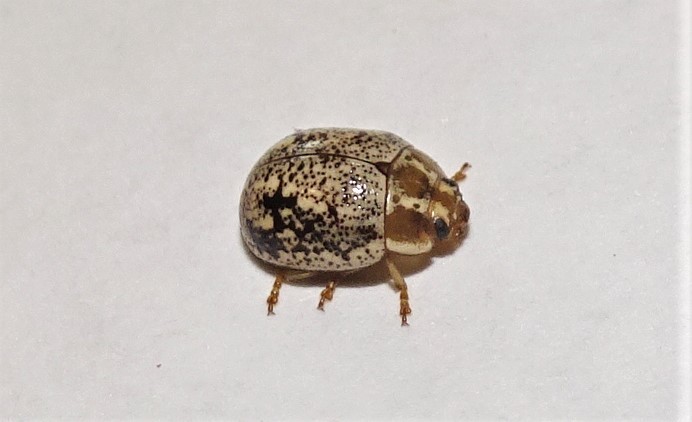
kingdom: Animalia
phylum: Arthropoda
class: Insecta
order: Coleoptera
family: Chrysomelidae
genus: Paropsisterna
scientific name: Paropsisterna
